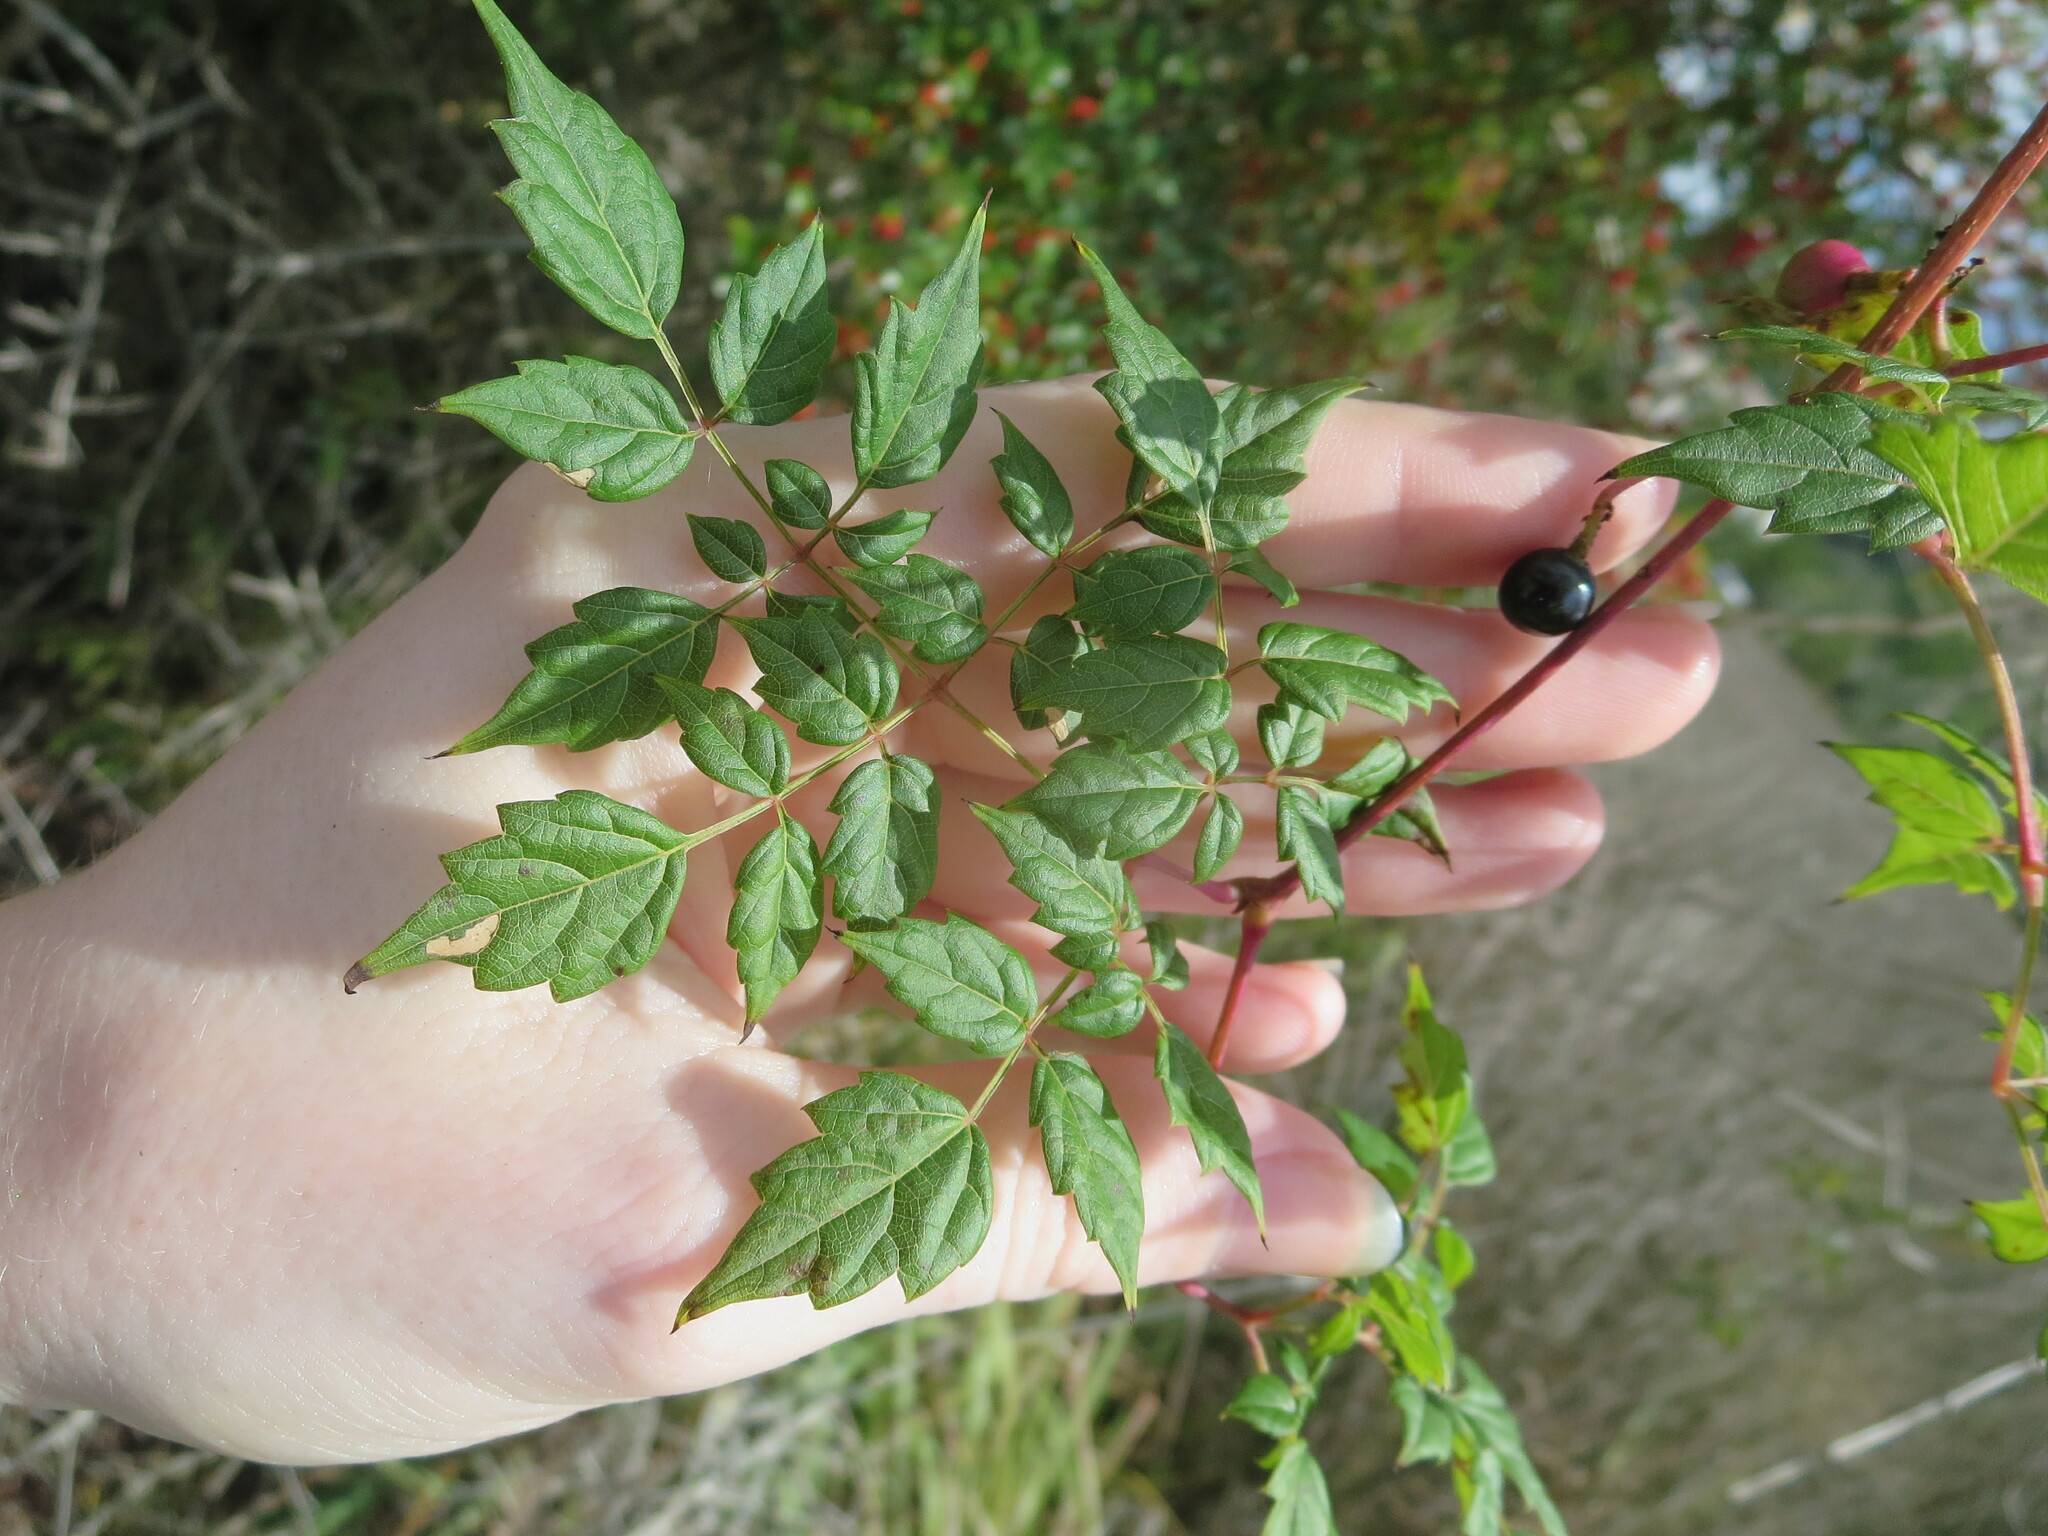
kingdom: Plantae
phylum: Tracheophyta
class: Magnoliopsida
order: Vitales
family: Vitaceae
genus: Nekemias
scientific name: Nekemias arborea
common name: Peppervine
